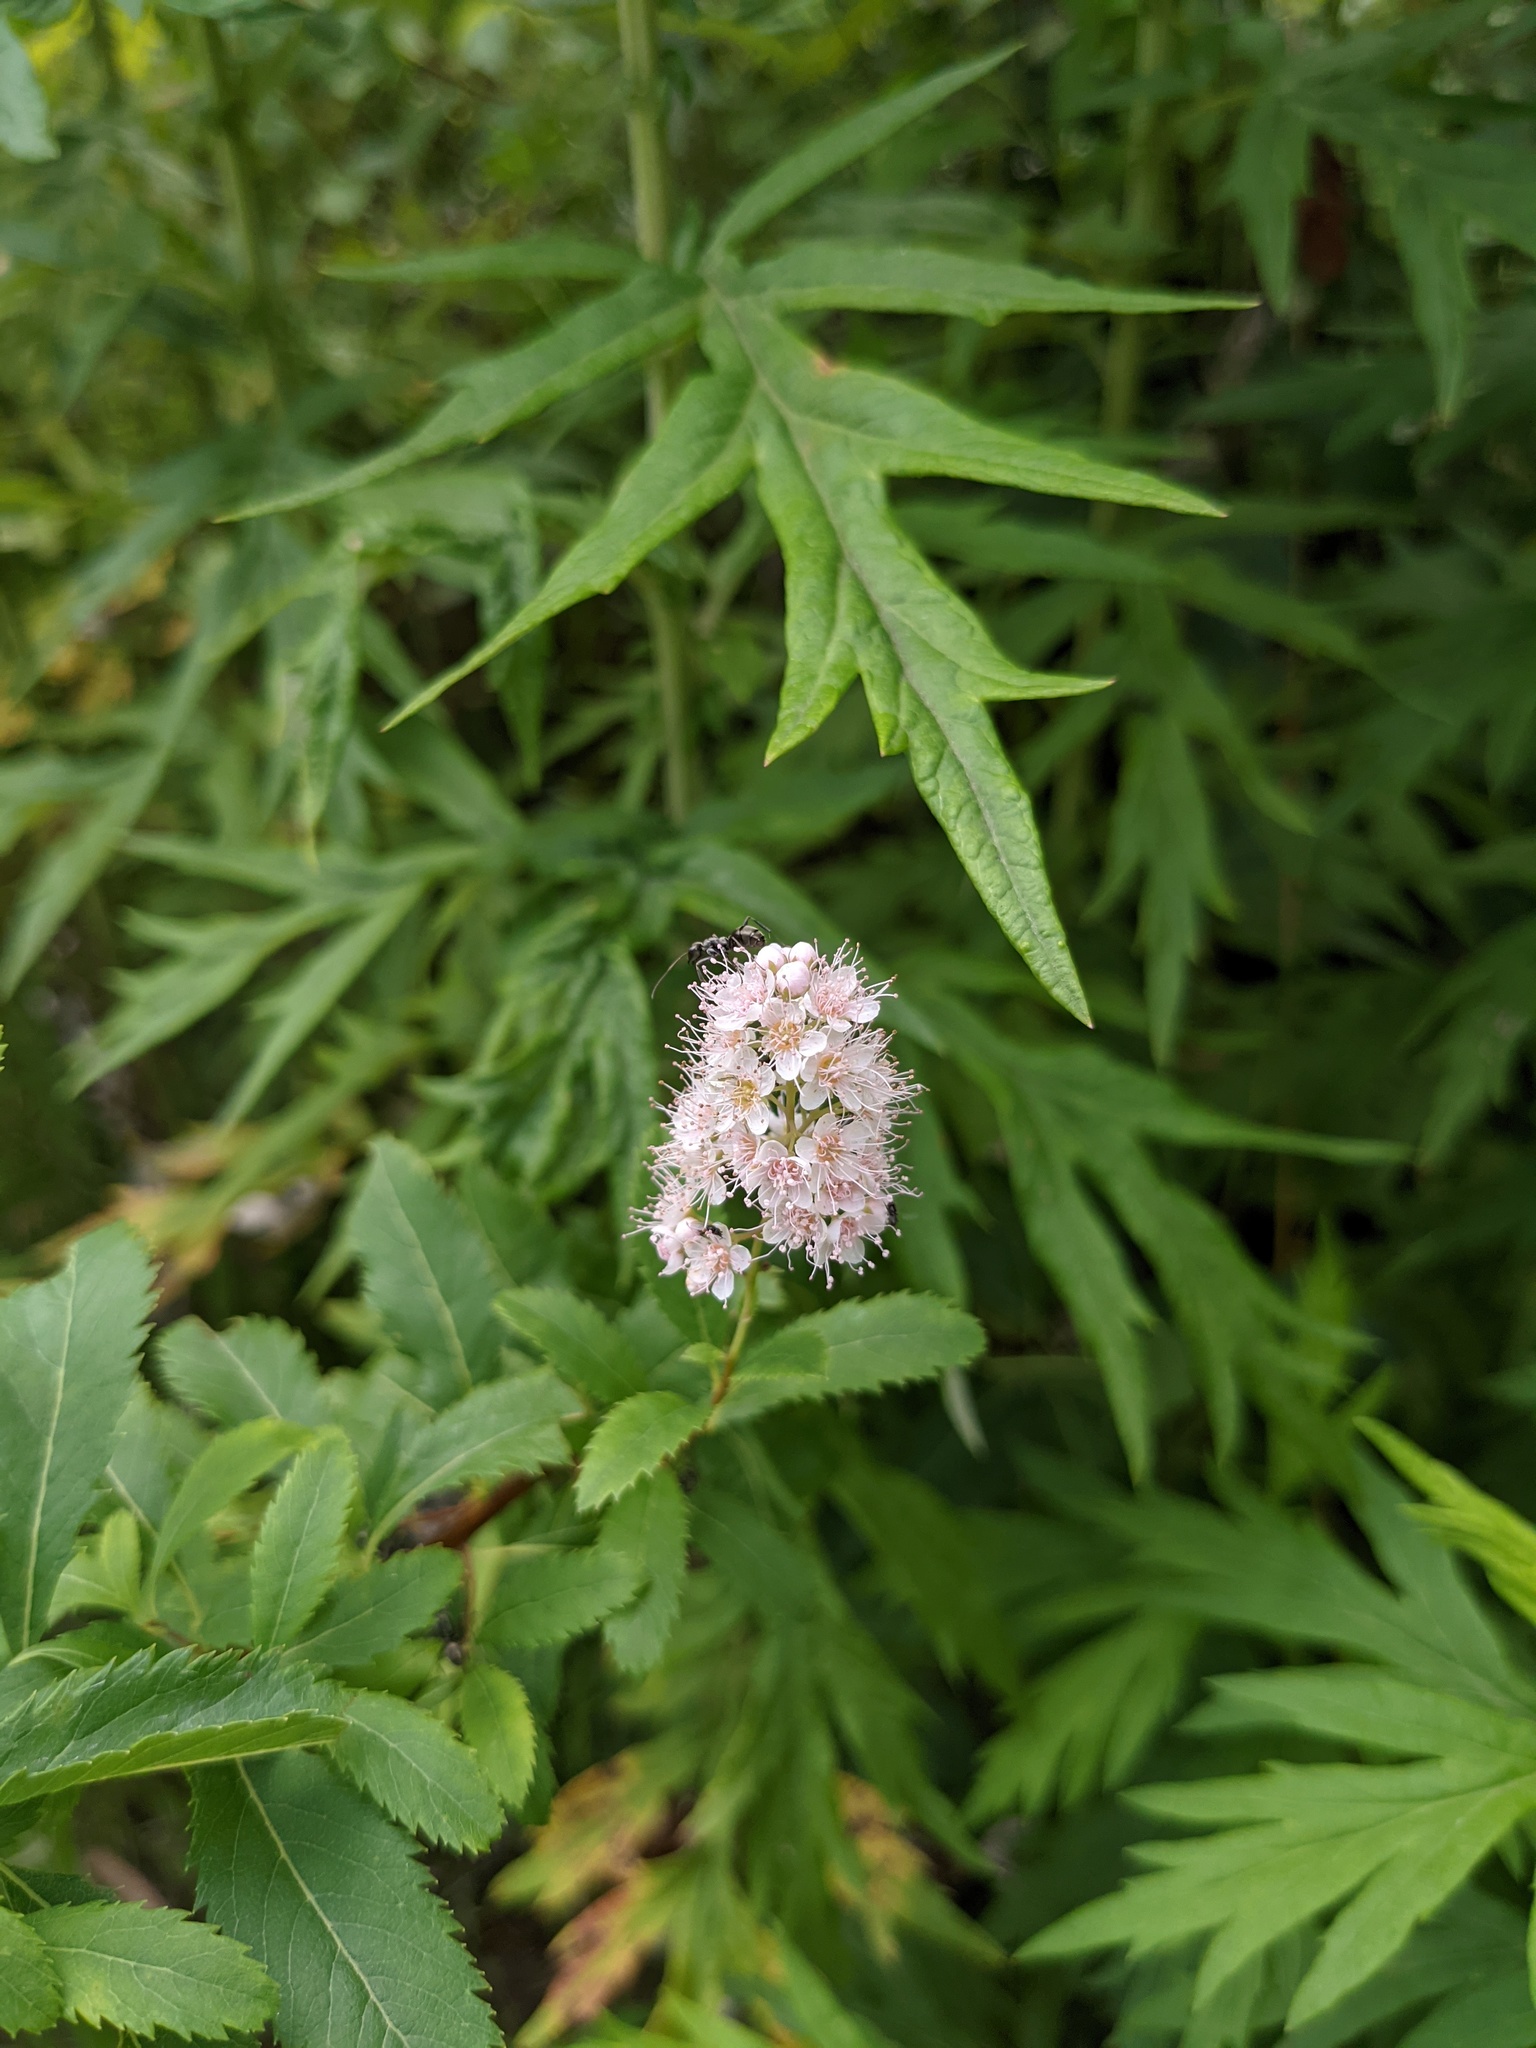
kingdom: Plantae
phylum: Tracheophyta
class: Magnoliopsida
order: Rosales
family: Rosaceae
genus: Spiraea
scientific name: Spiraea alba
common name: Pale bridewort
